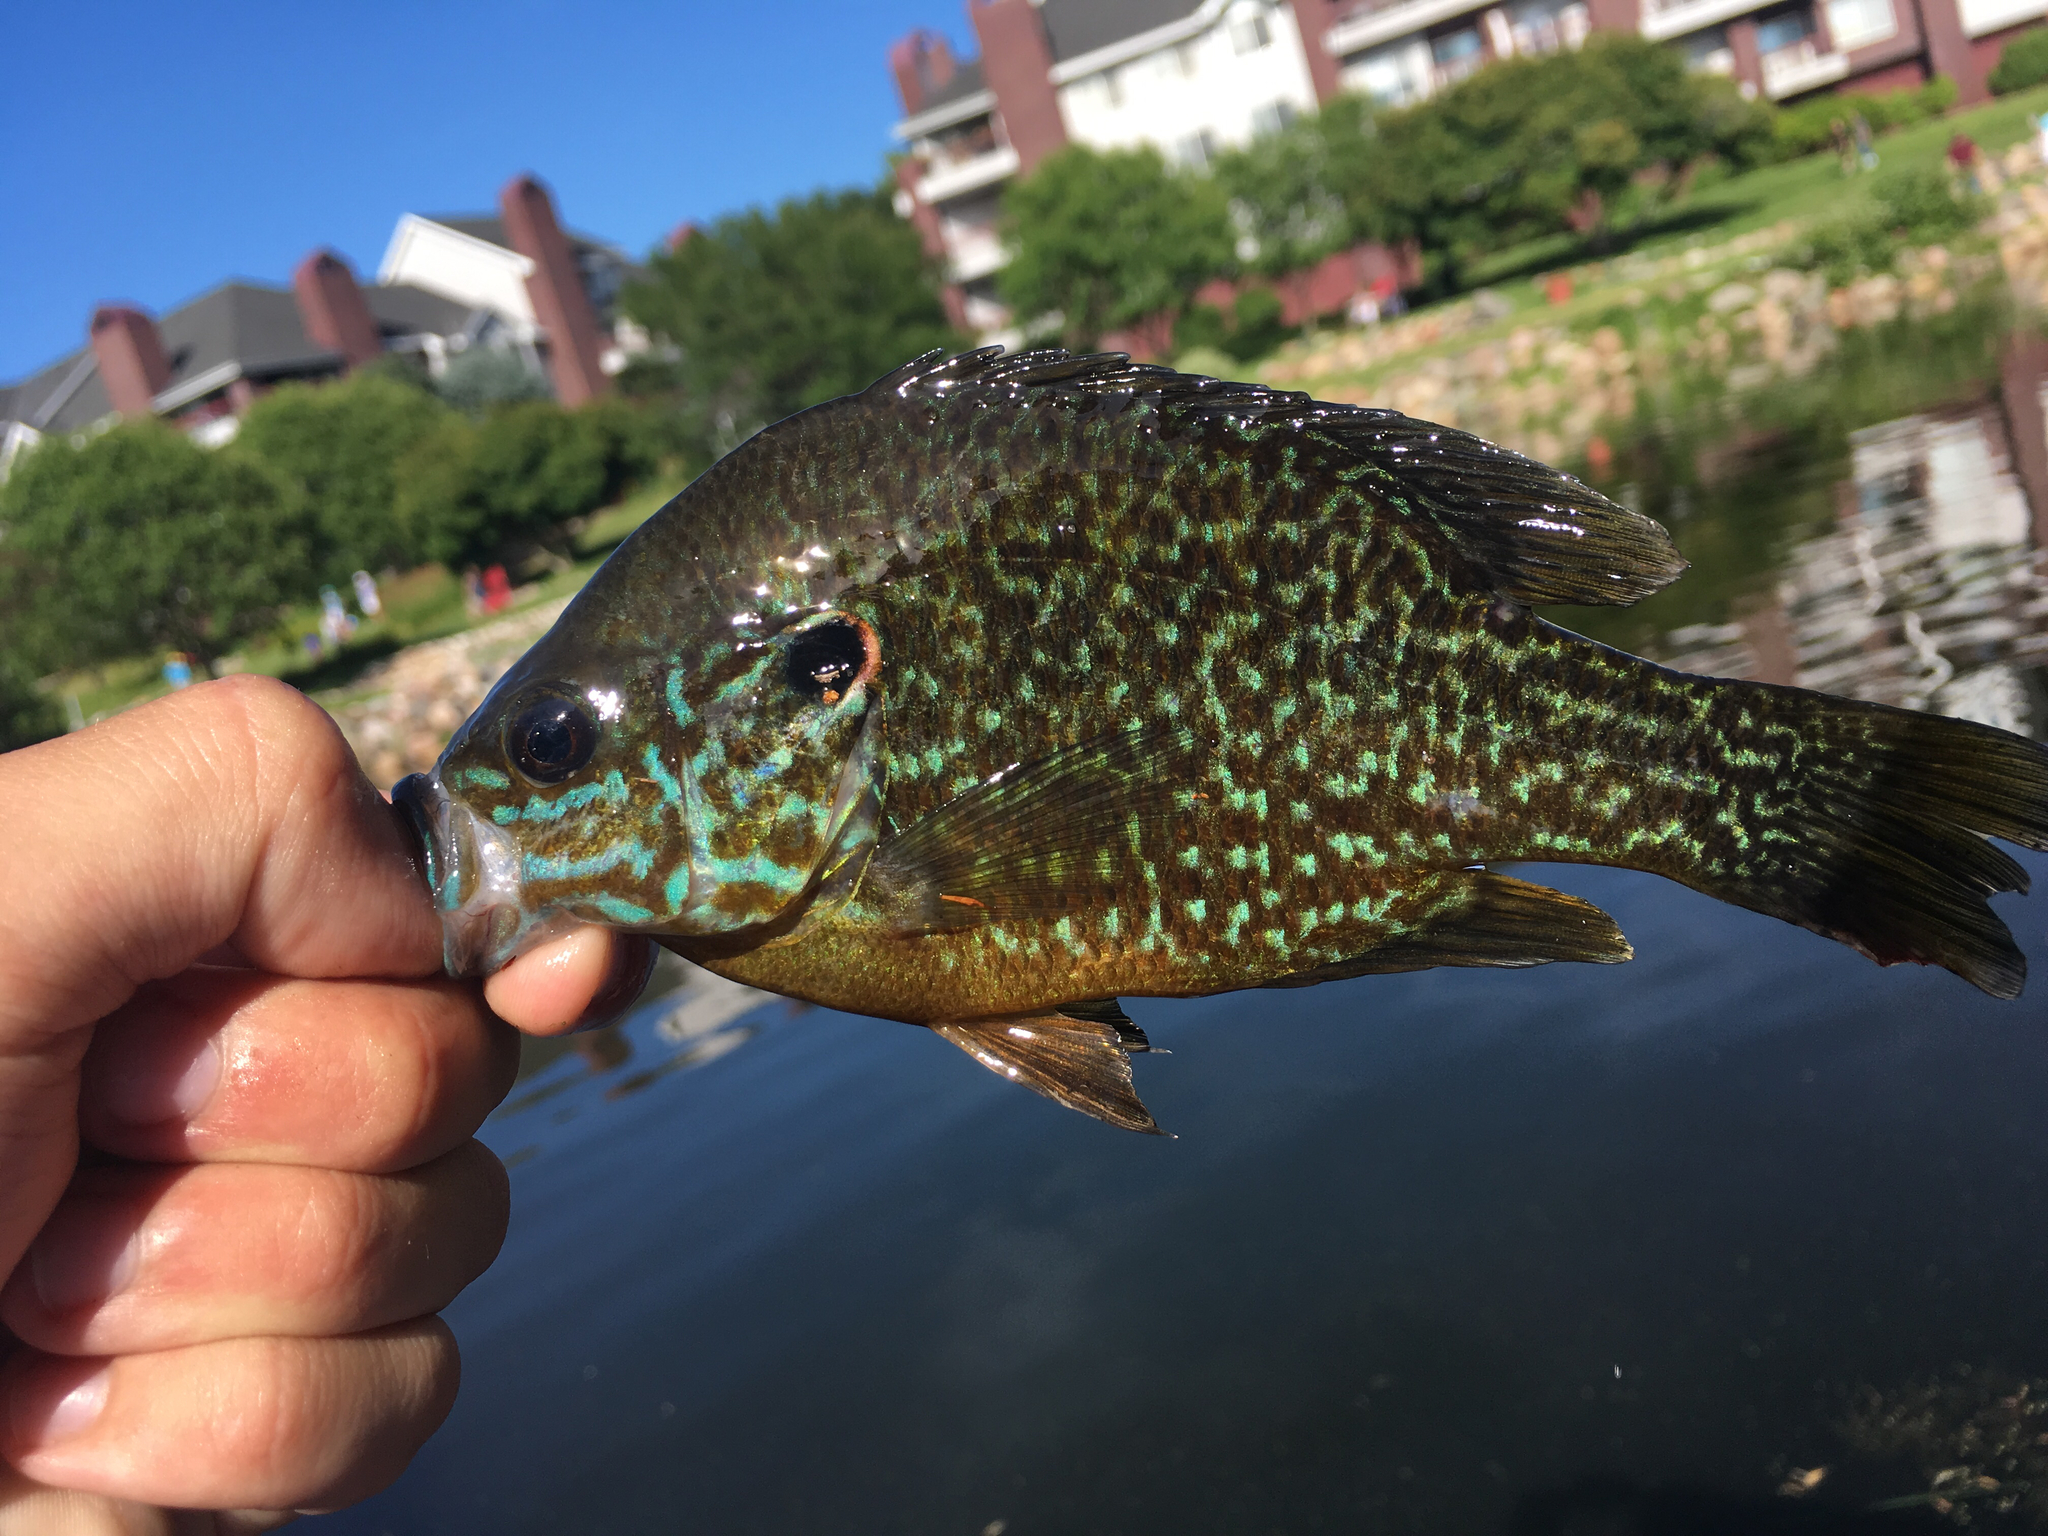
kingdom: Animalia
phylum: Chordata
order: Perciformes
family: Centrarchidae
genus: Lepomis
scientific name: Lepomis
